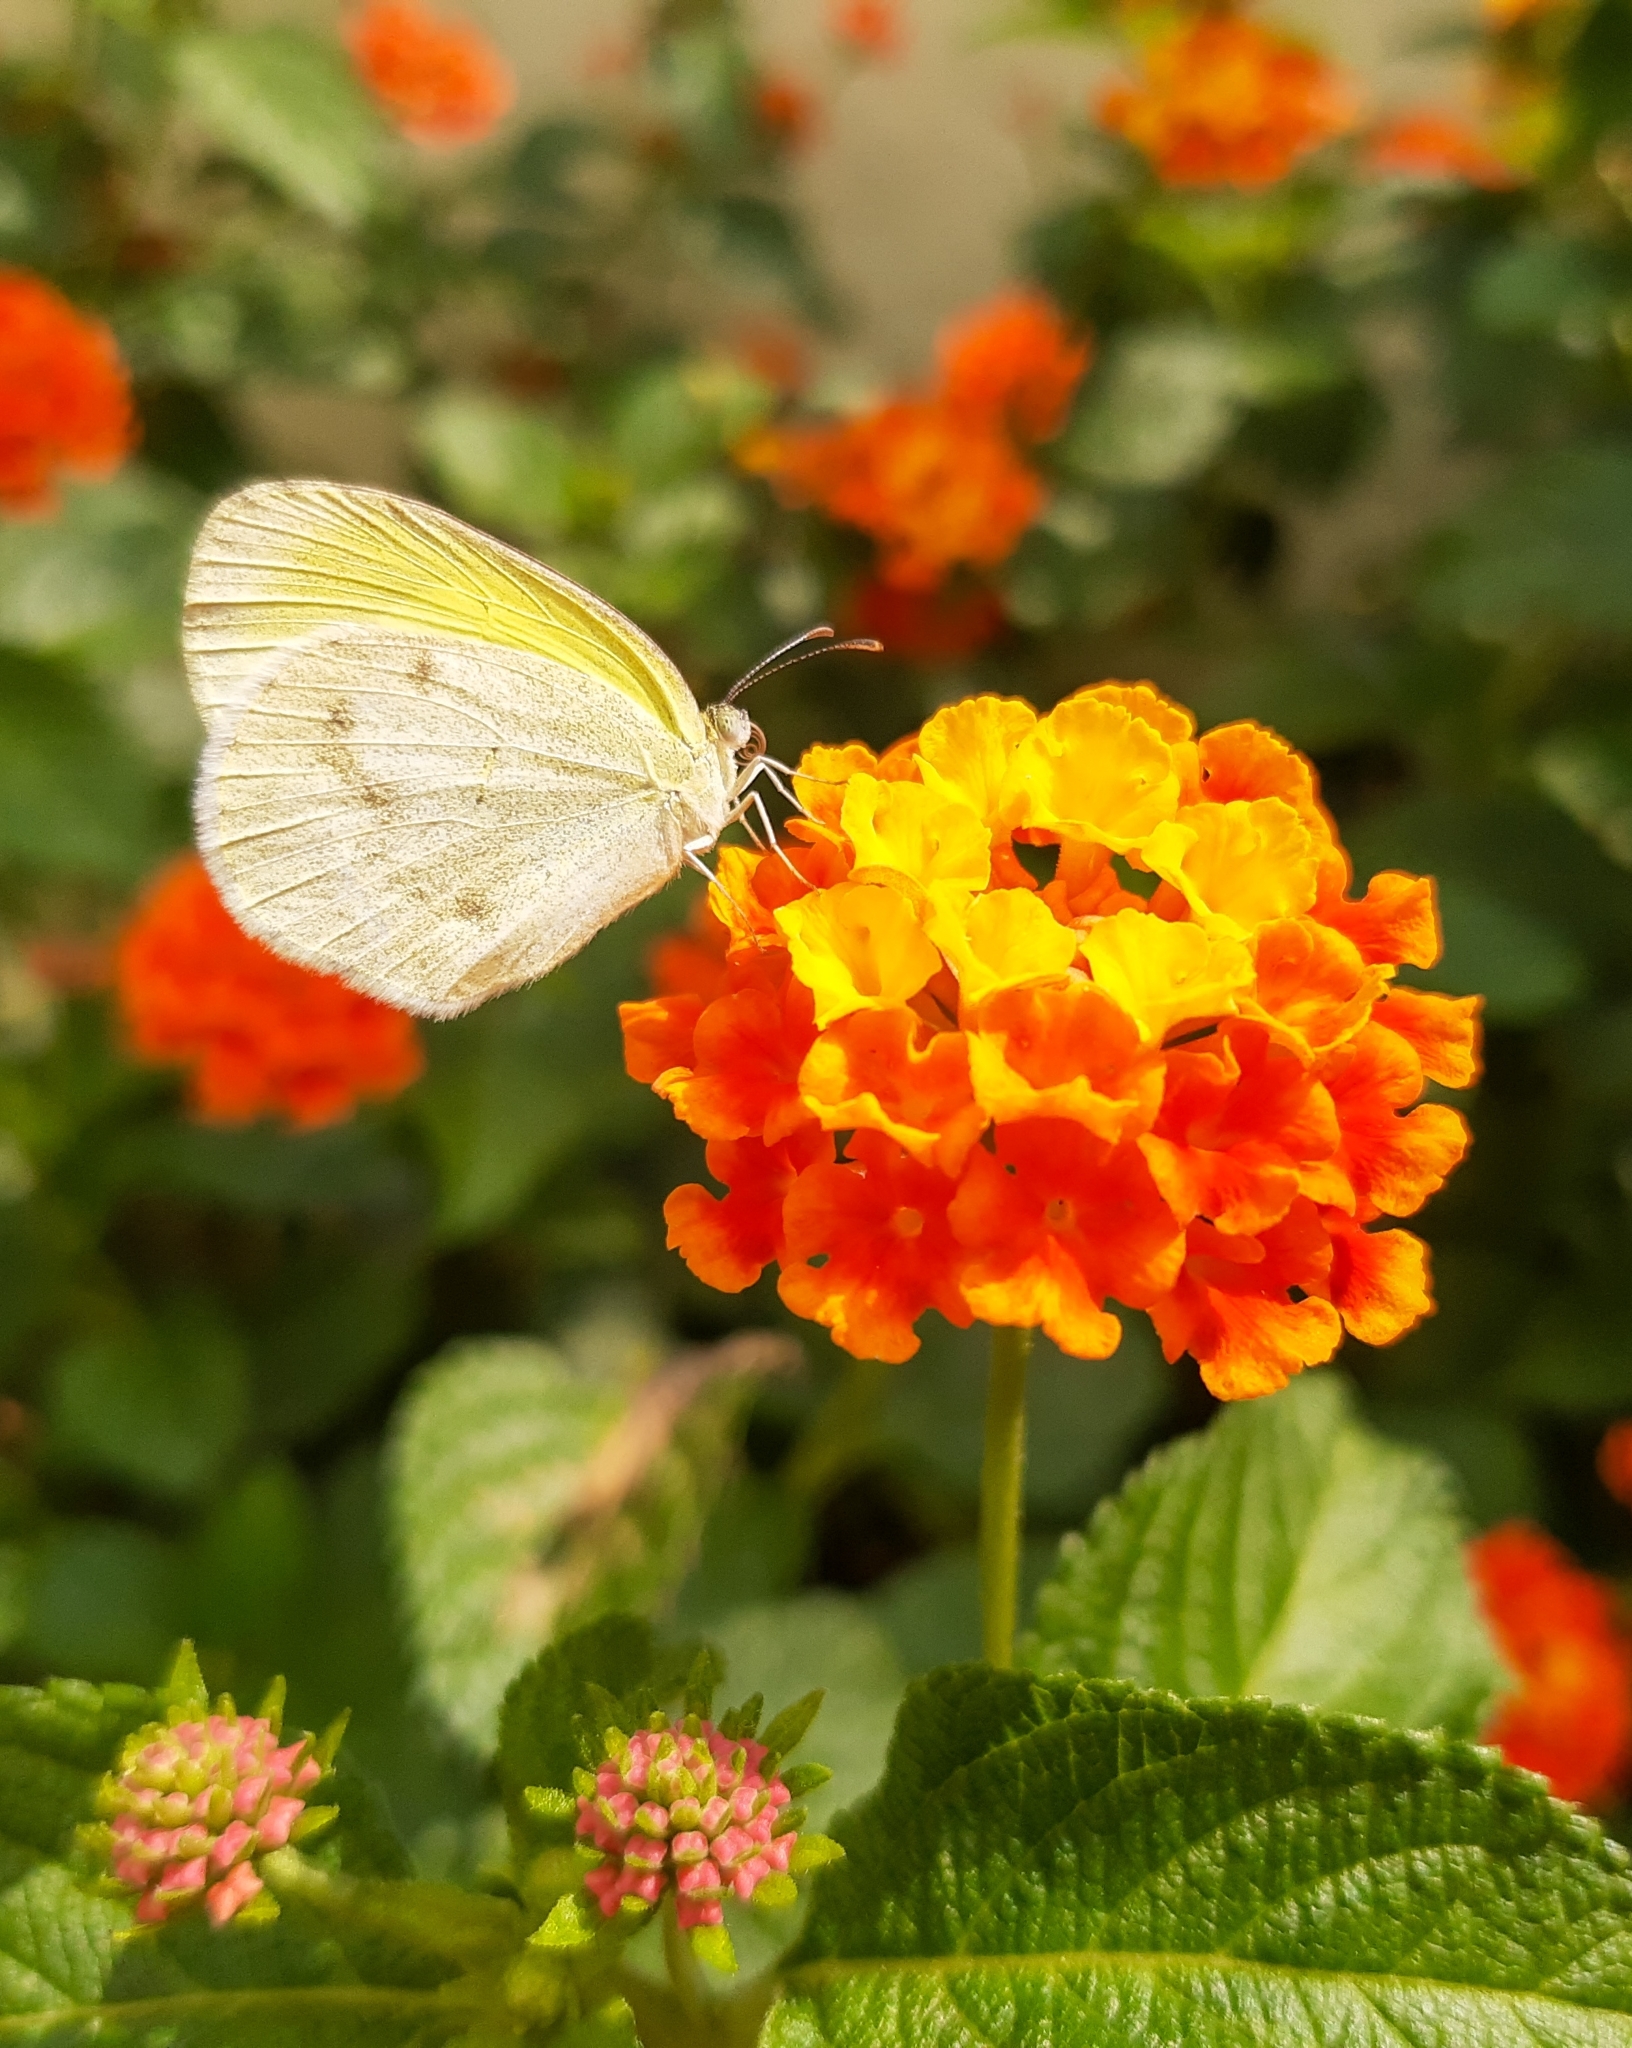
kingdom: Animalia
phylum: Arthropoda
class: Insecta
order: Lepidoptera
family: Pieridae
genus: Eurema
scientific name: Eurema elathea
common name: Banded yellow
